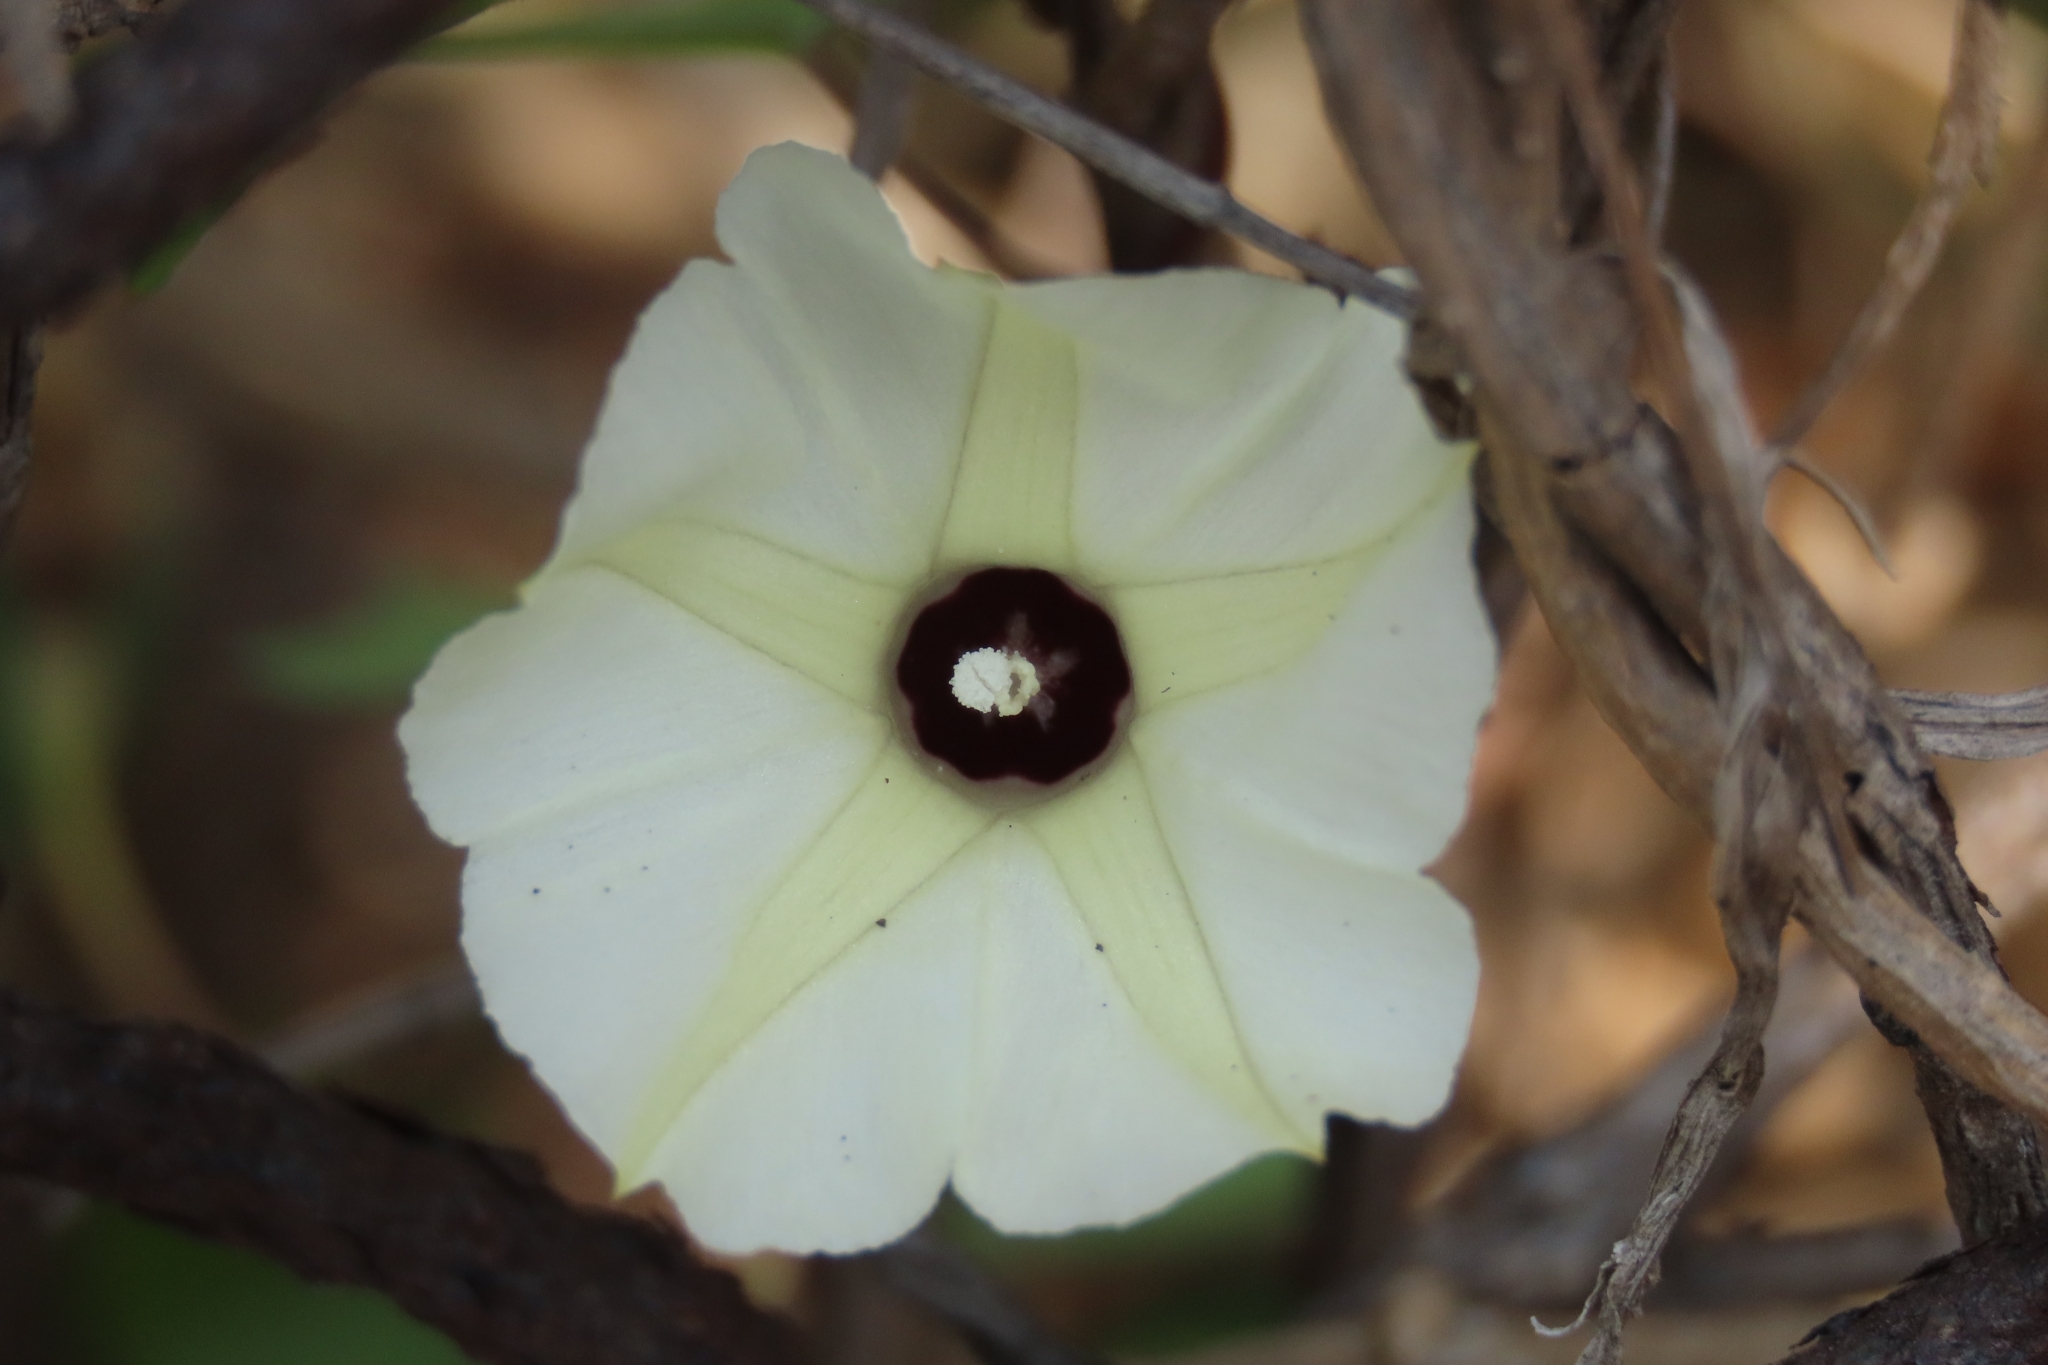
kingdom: Plantae
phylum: Tracheophyta
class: Magnoliopsida
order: Solanales
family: Convolvulaceae
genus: Ipomoea
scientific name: Ipomoea obscura
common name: Obscure morning-glory
